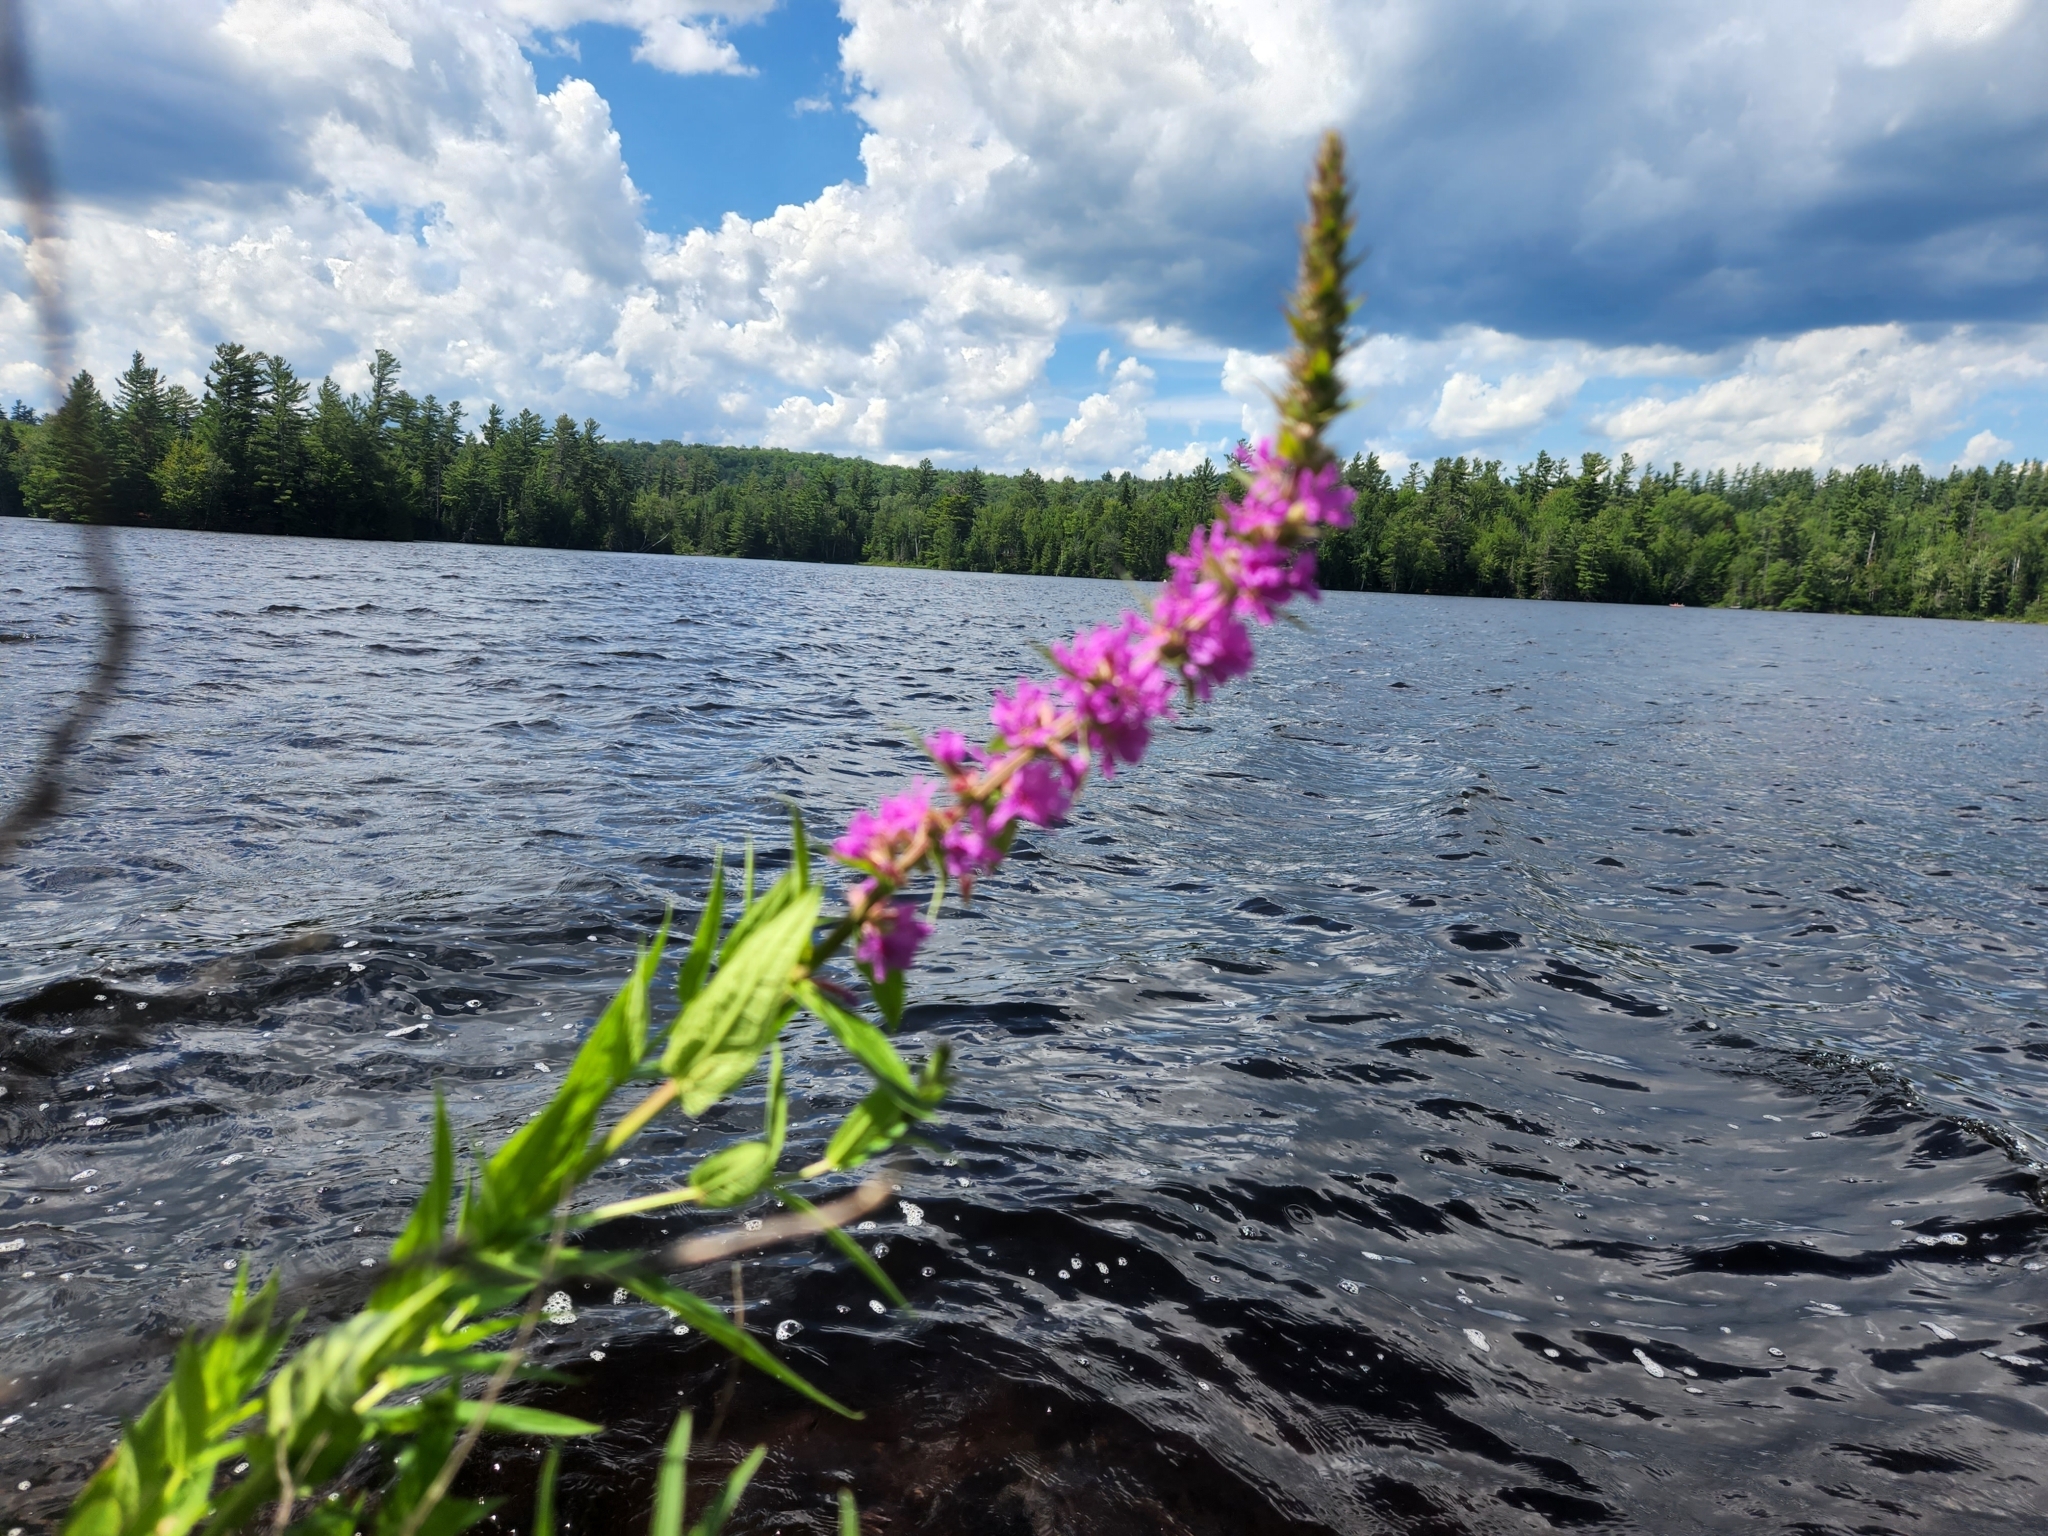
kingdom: Plantae
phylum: Tracheophyta
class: Magnoliopsida
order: Myrtales
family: Lythraceae
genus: Lythrum
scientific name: Lythrum salicaria
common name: Purple loosestrife
